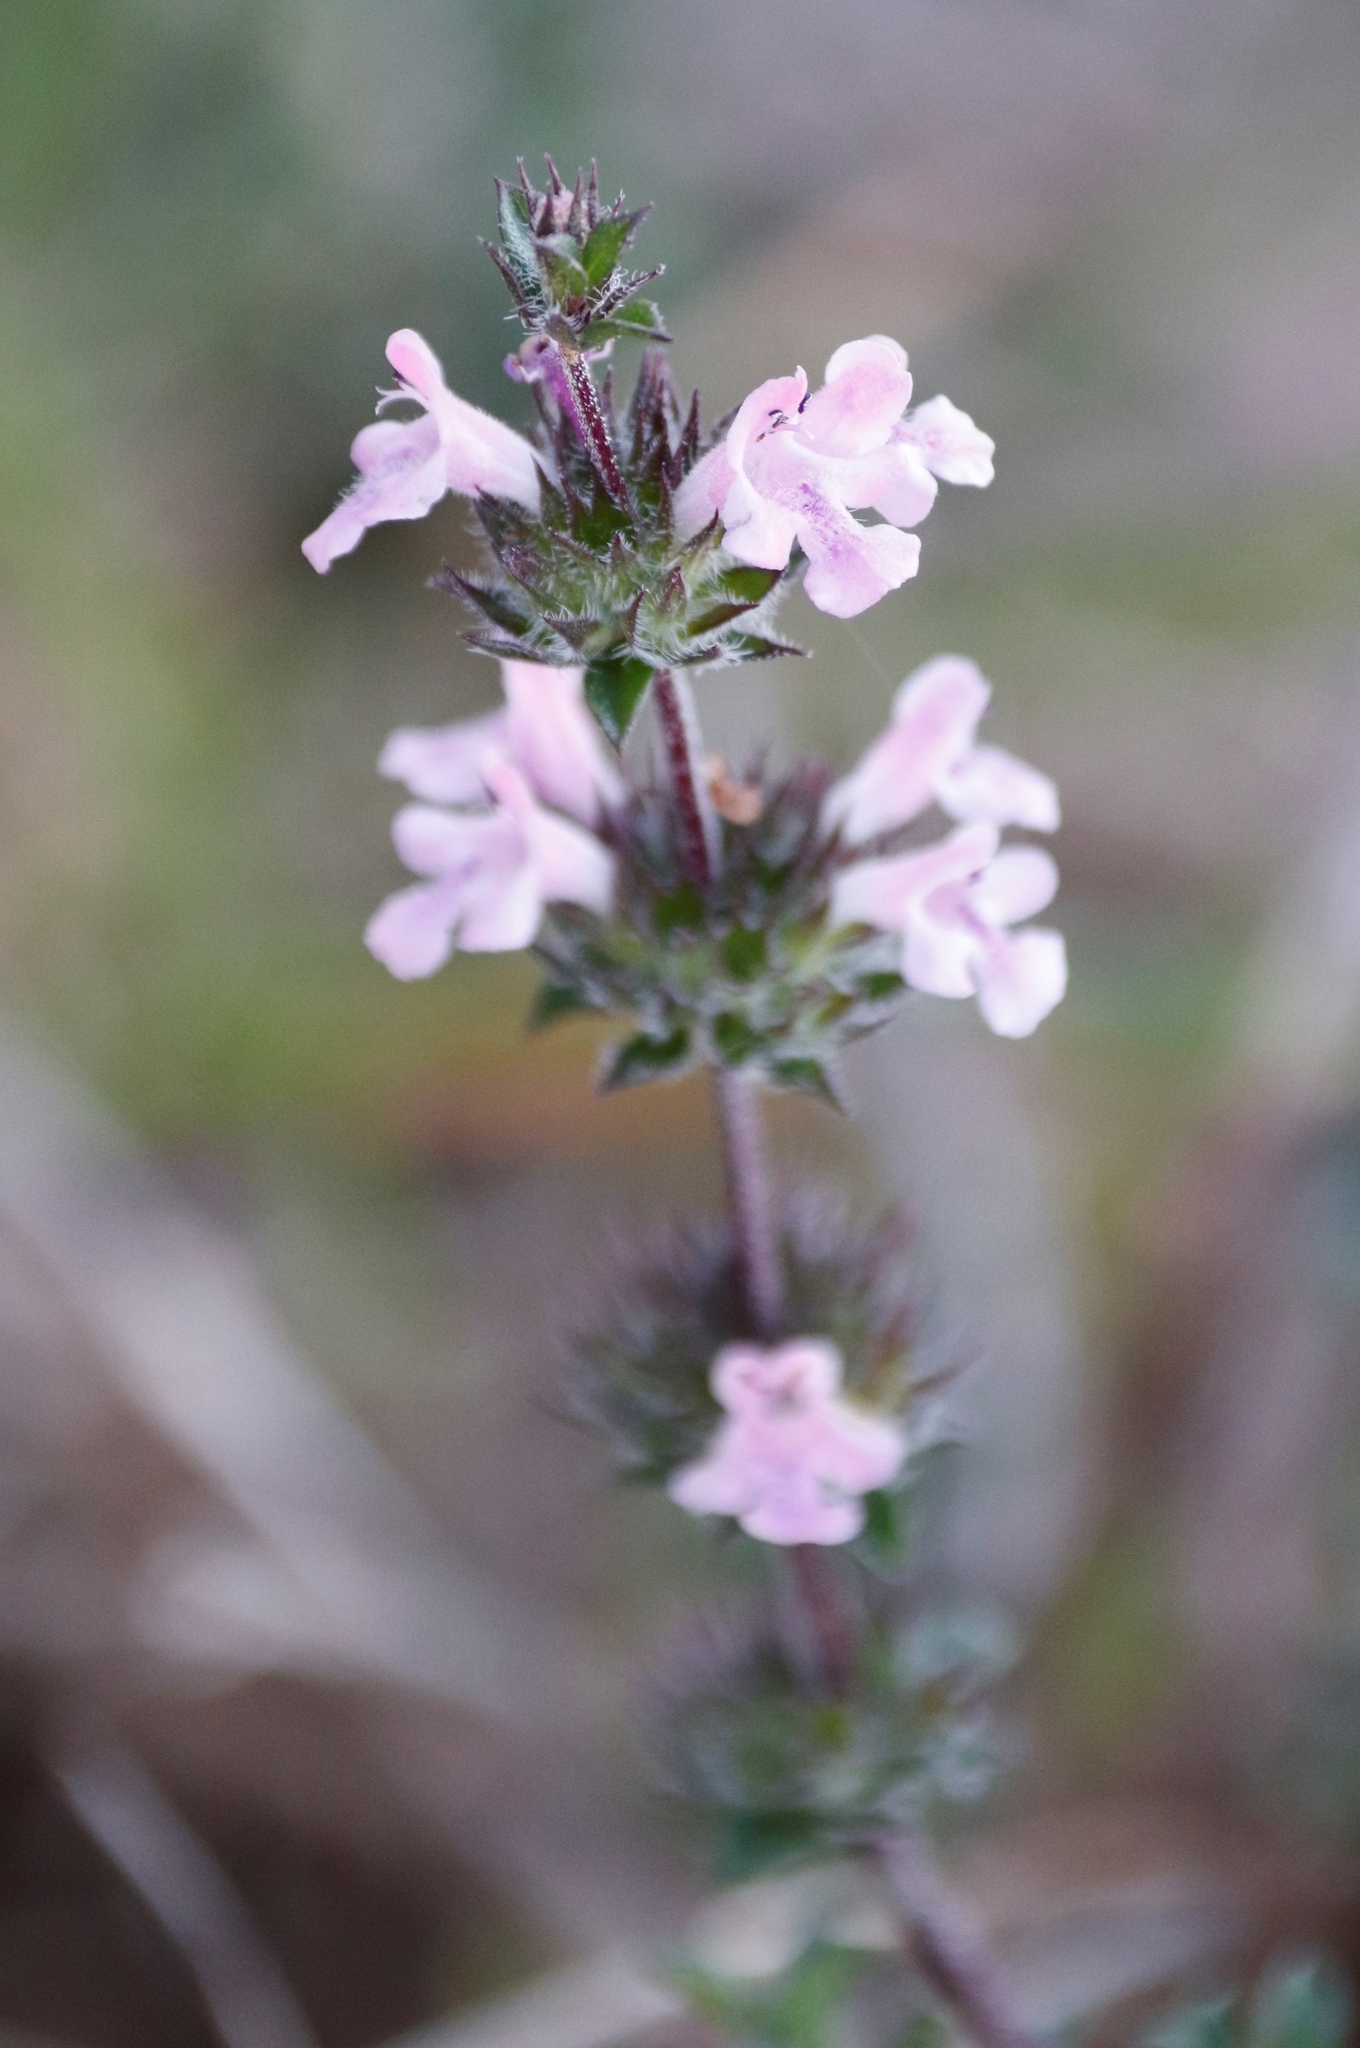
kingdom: Plantae
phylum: Tracheophyta
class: Magnoliopsida
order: Lamiales
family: Lamiaceae
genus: Satureja
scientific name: Satureja thymbra
